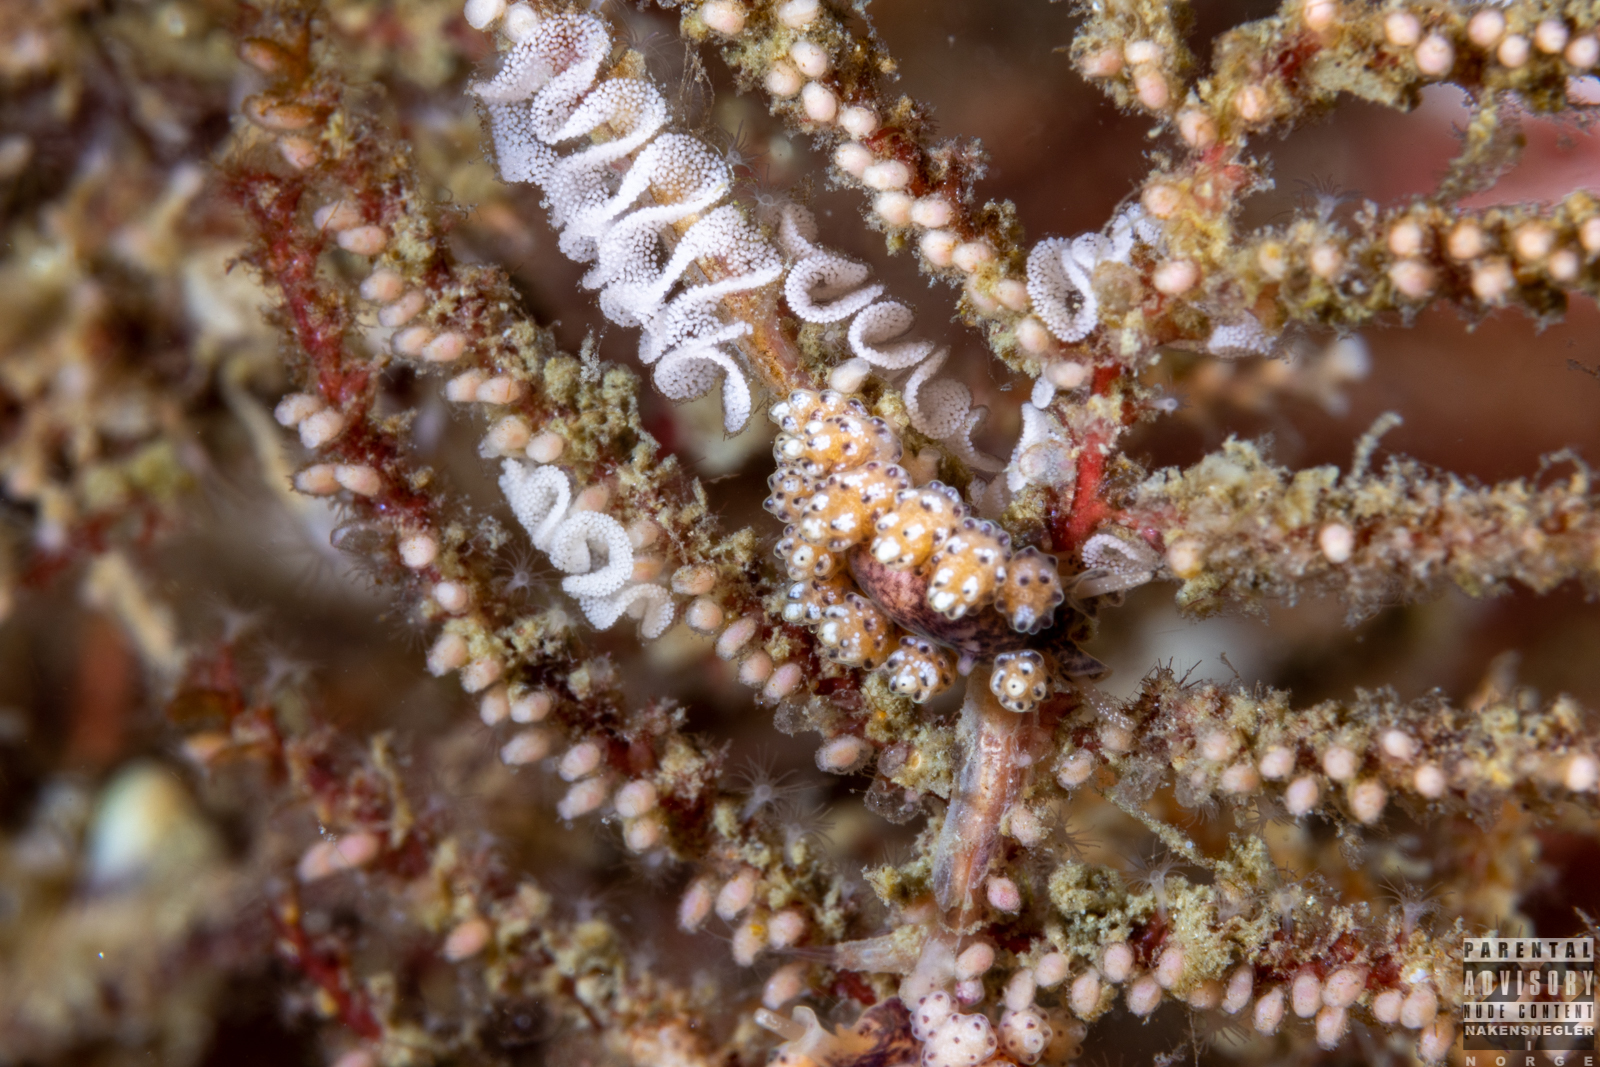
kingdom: Animalia
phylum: Mollusca
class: Gastropoda
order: Nudibranchia
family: Dotidae
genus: Doto
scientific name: Doto coronata
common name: Coronate doto
